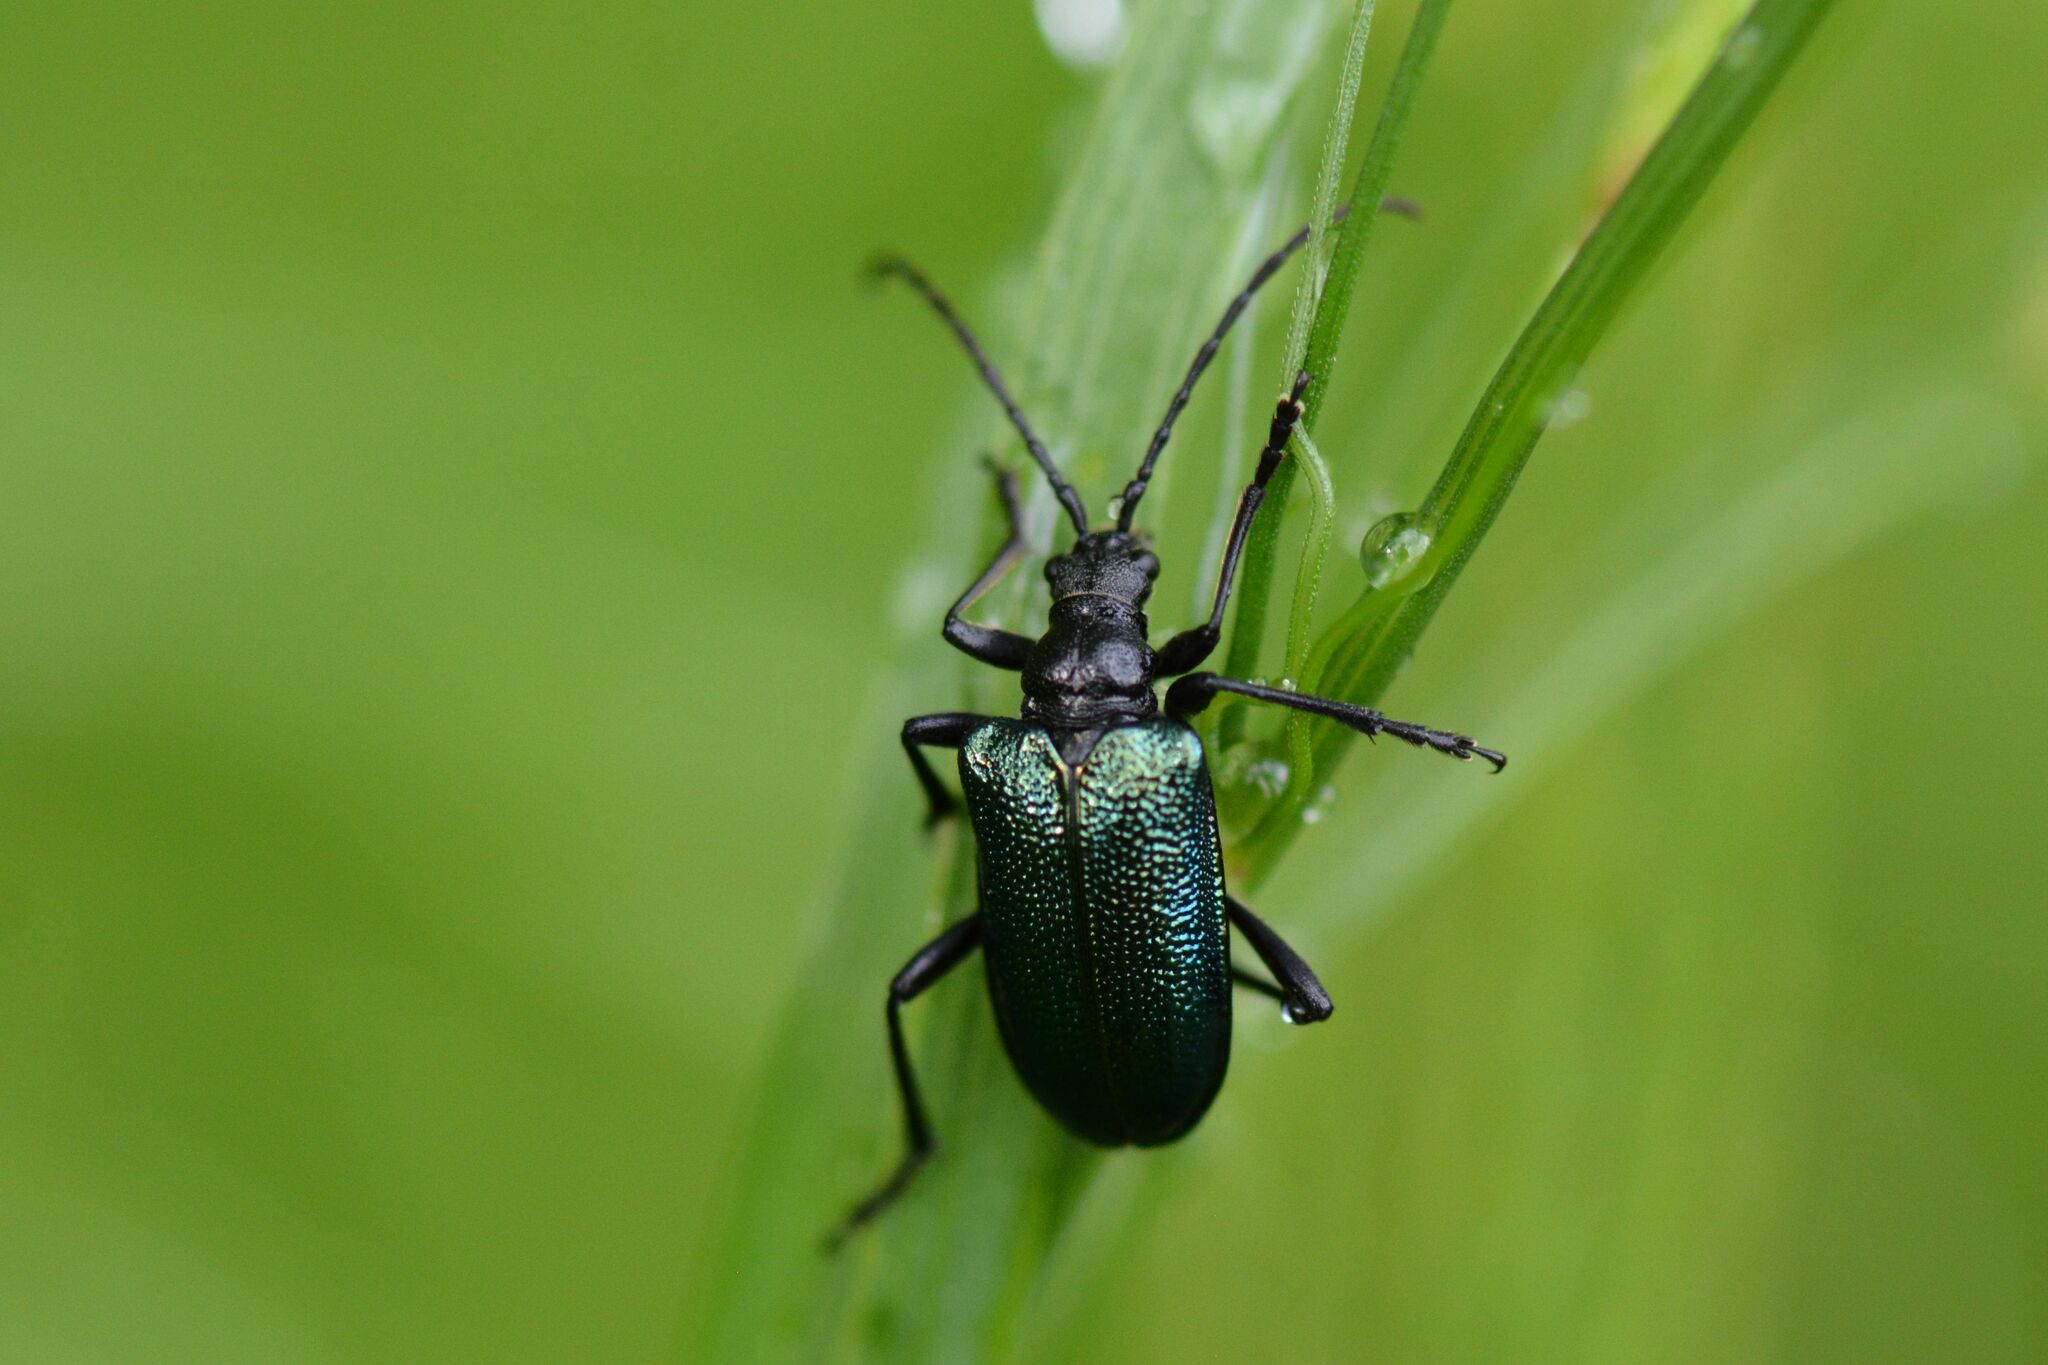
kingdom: Animalia
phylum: Arthropoda
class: Insecta
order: Coleoptera
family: Cerambycidae
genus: Gaurotes
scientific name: Gaurotes virginea
